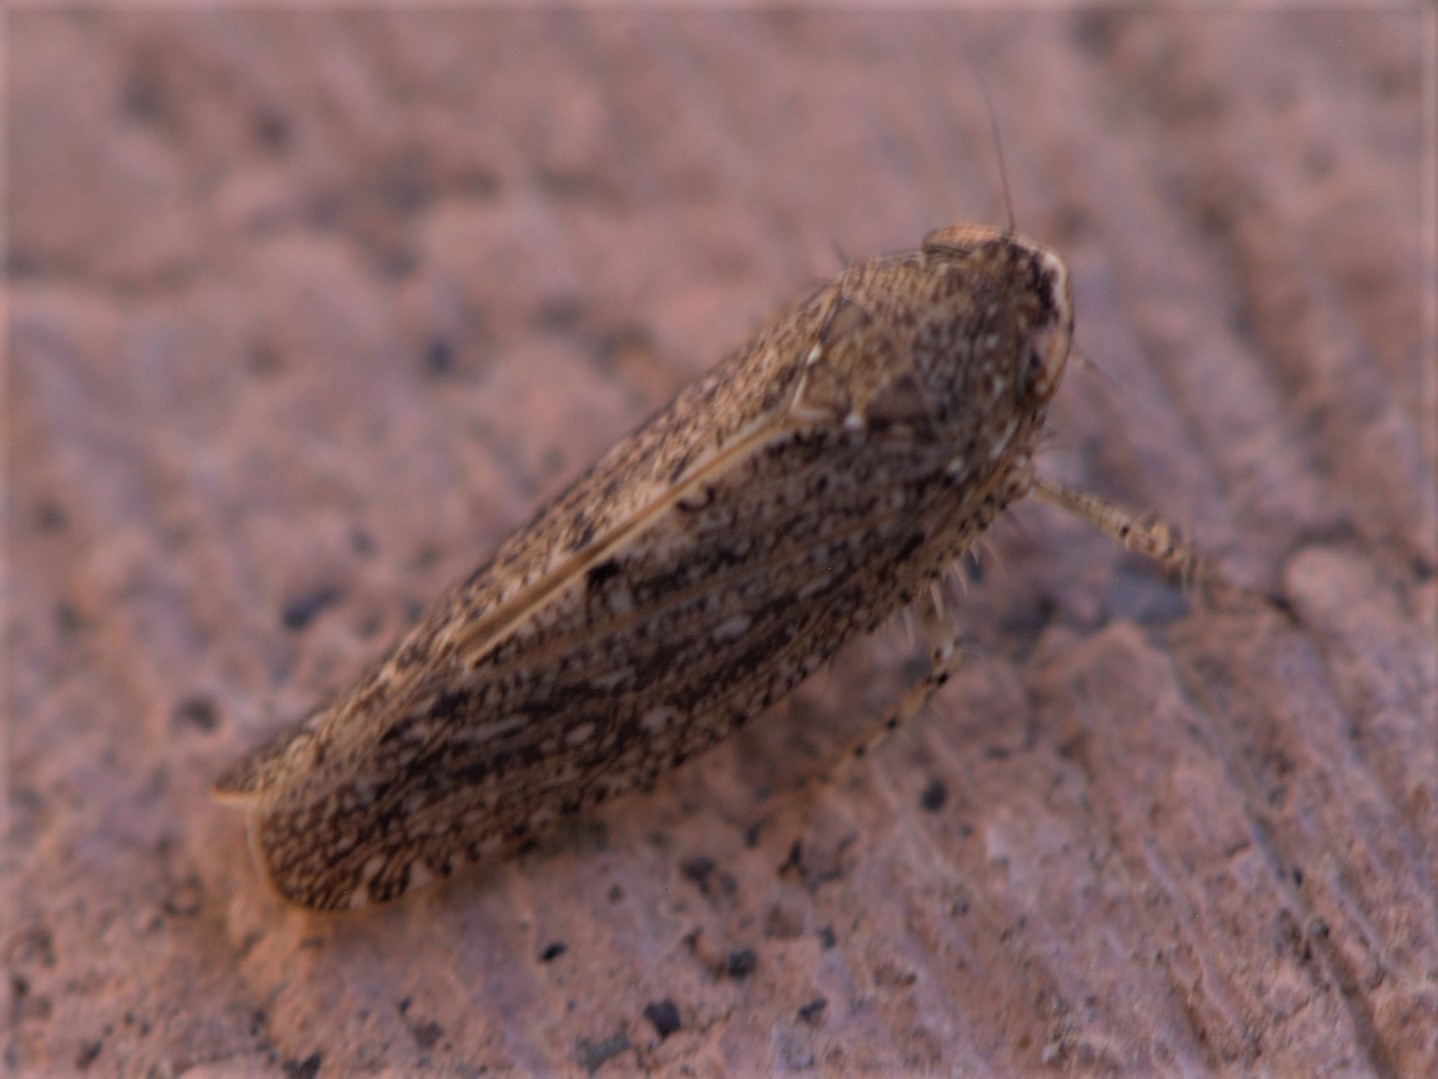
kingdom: Animalia
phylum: Arthropoda
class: Insecta
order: Hemiptera
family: Cicadellidae
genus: Texananus
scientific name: Texananus
